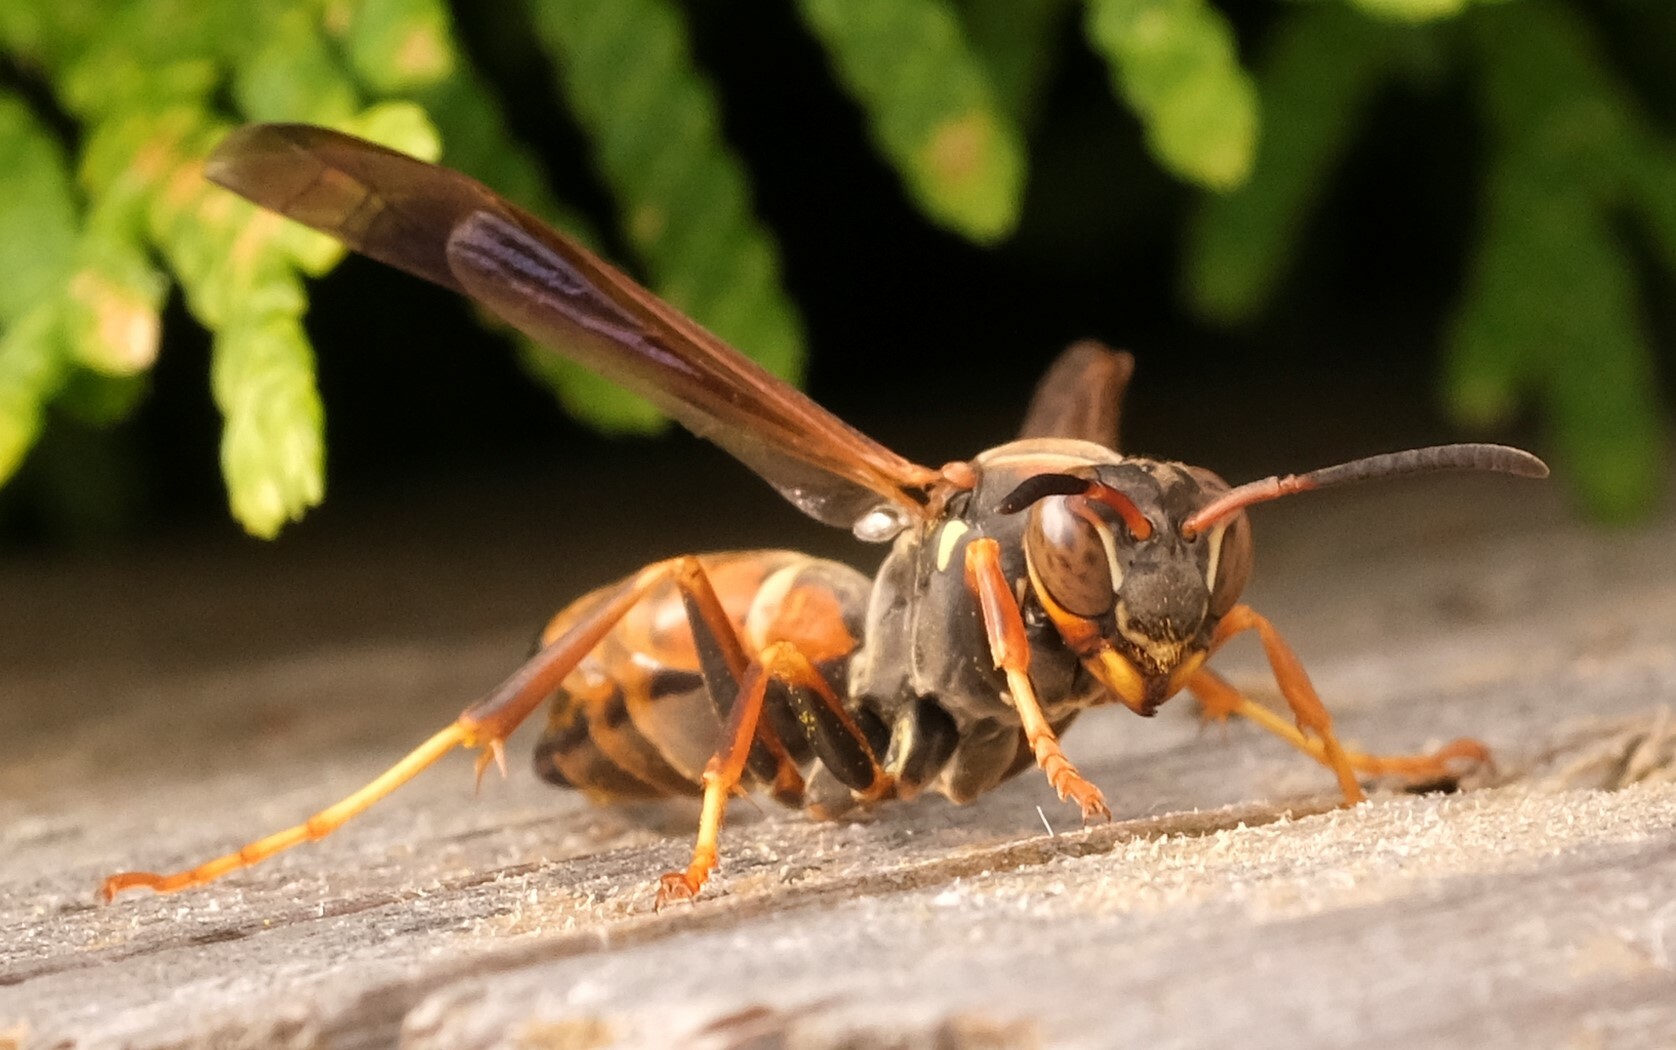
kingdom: Animalia
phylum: Arthropoda
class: Insecta
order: Hymenoptera
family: Eumenidae
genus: Polistes
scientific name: Polistes fuscatus
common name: Dark paper wasp
